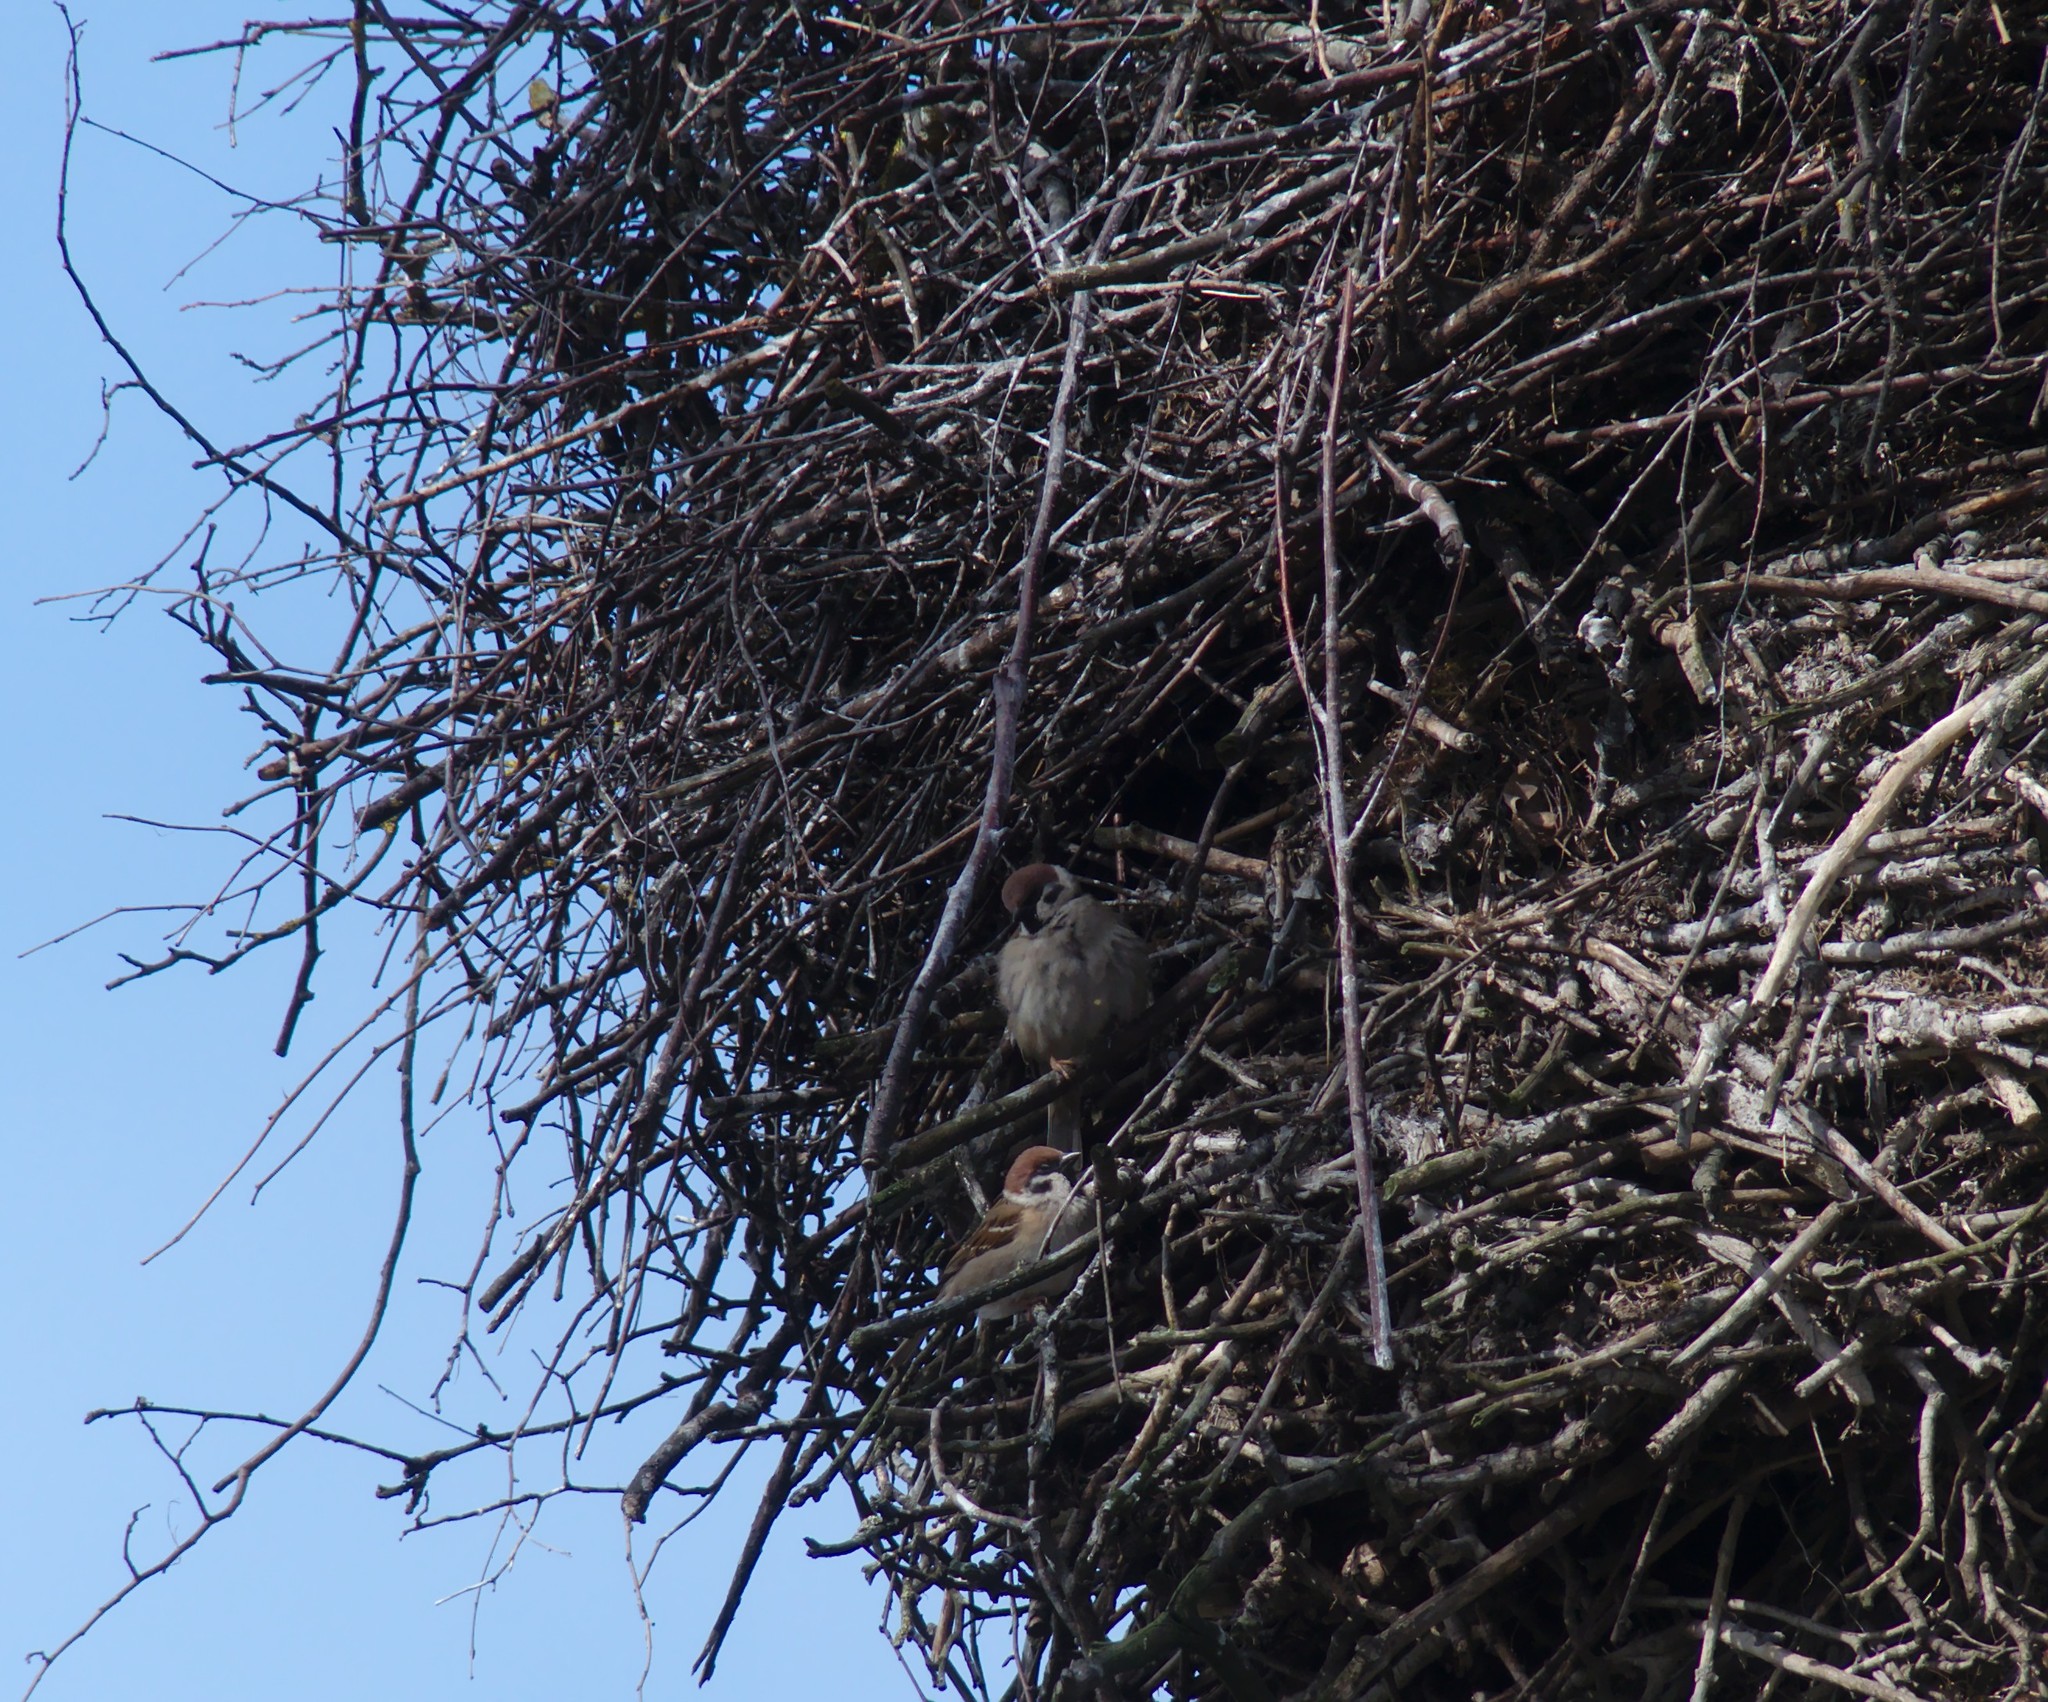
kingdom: Animalia
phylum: Chordata
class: Aves
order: Passeriformes
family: Passeridae
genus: Passer
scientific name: Passer montanus
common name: Eurasian tree sparrow
